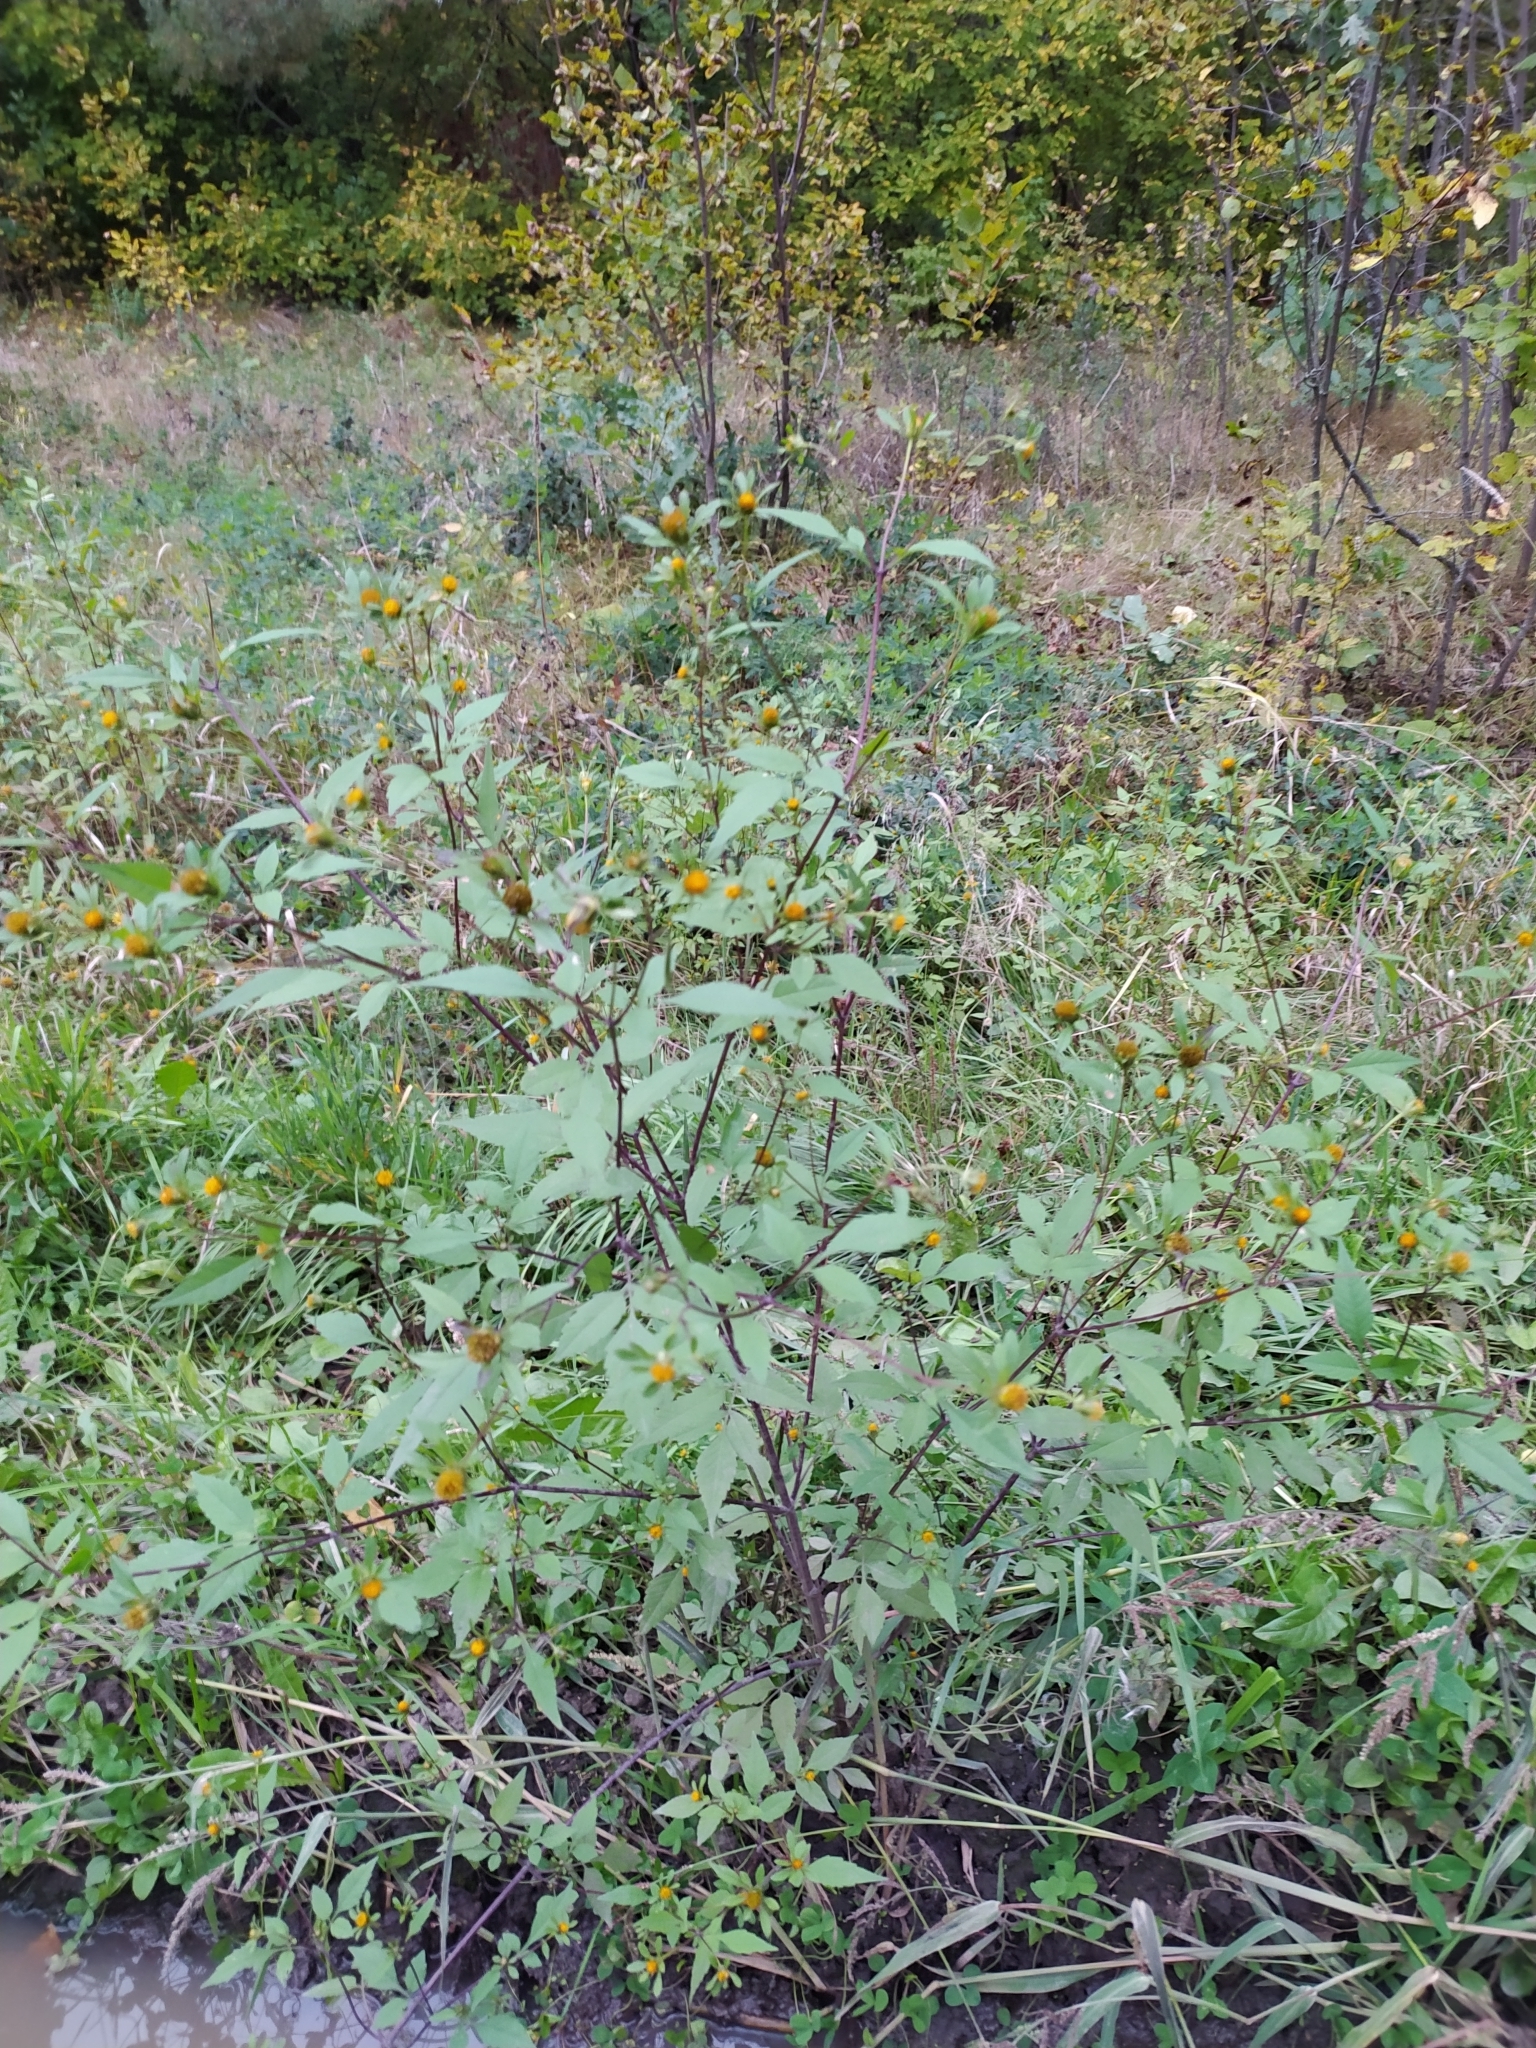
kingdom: Plantae
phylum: Tracheophyta
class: Magnoliopsida
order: Asterales
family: Asteraceae
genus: Bidens
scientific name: Bidens frondosa
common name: Beggarticks
